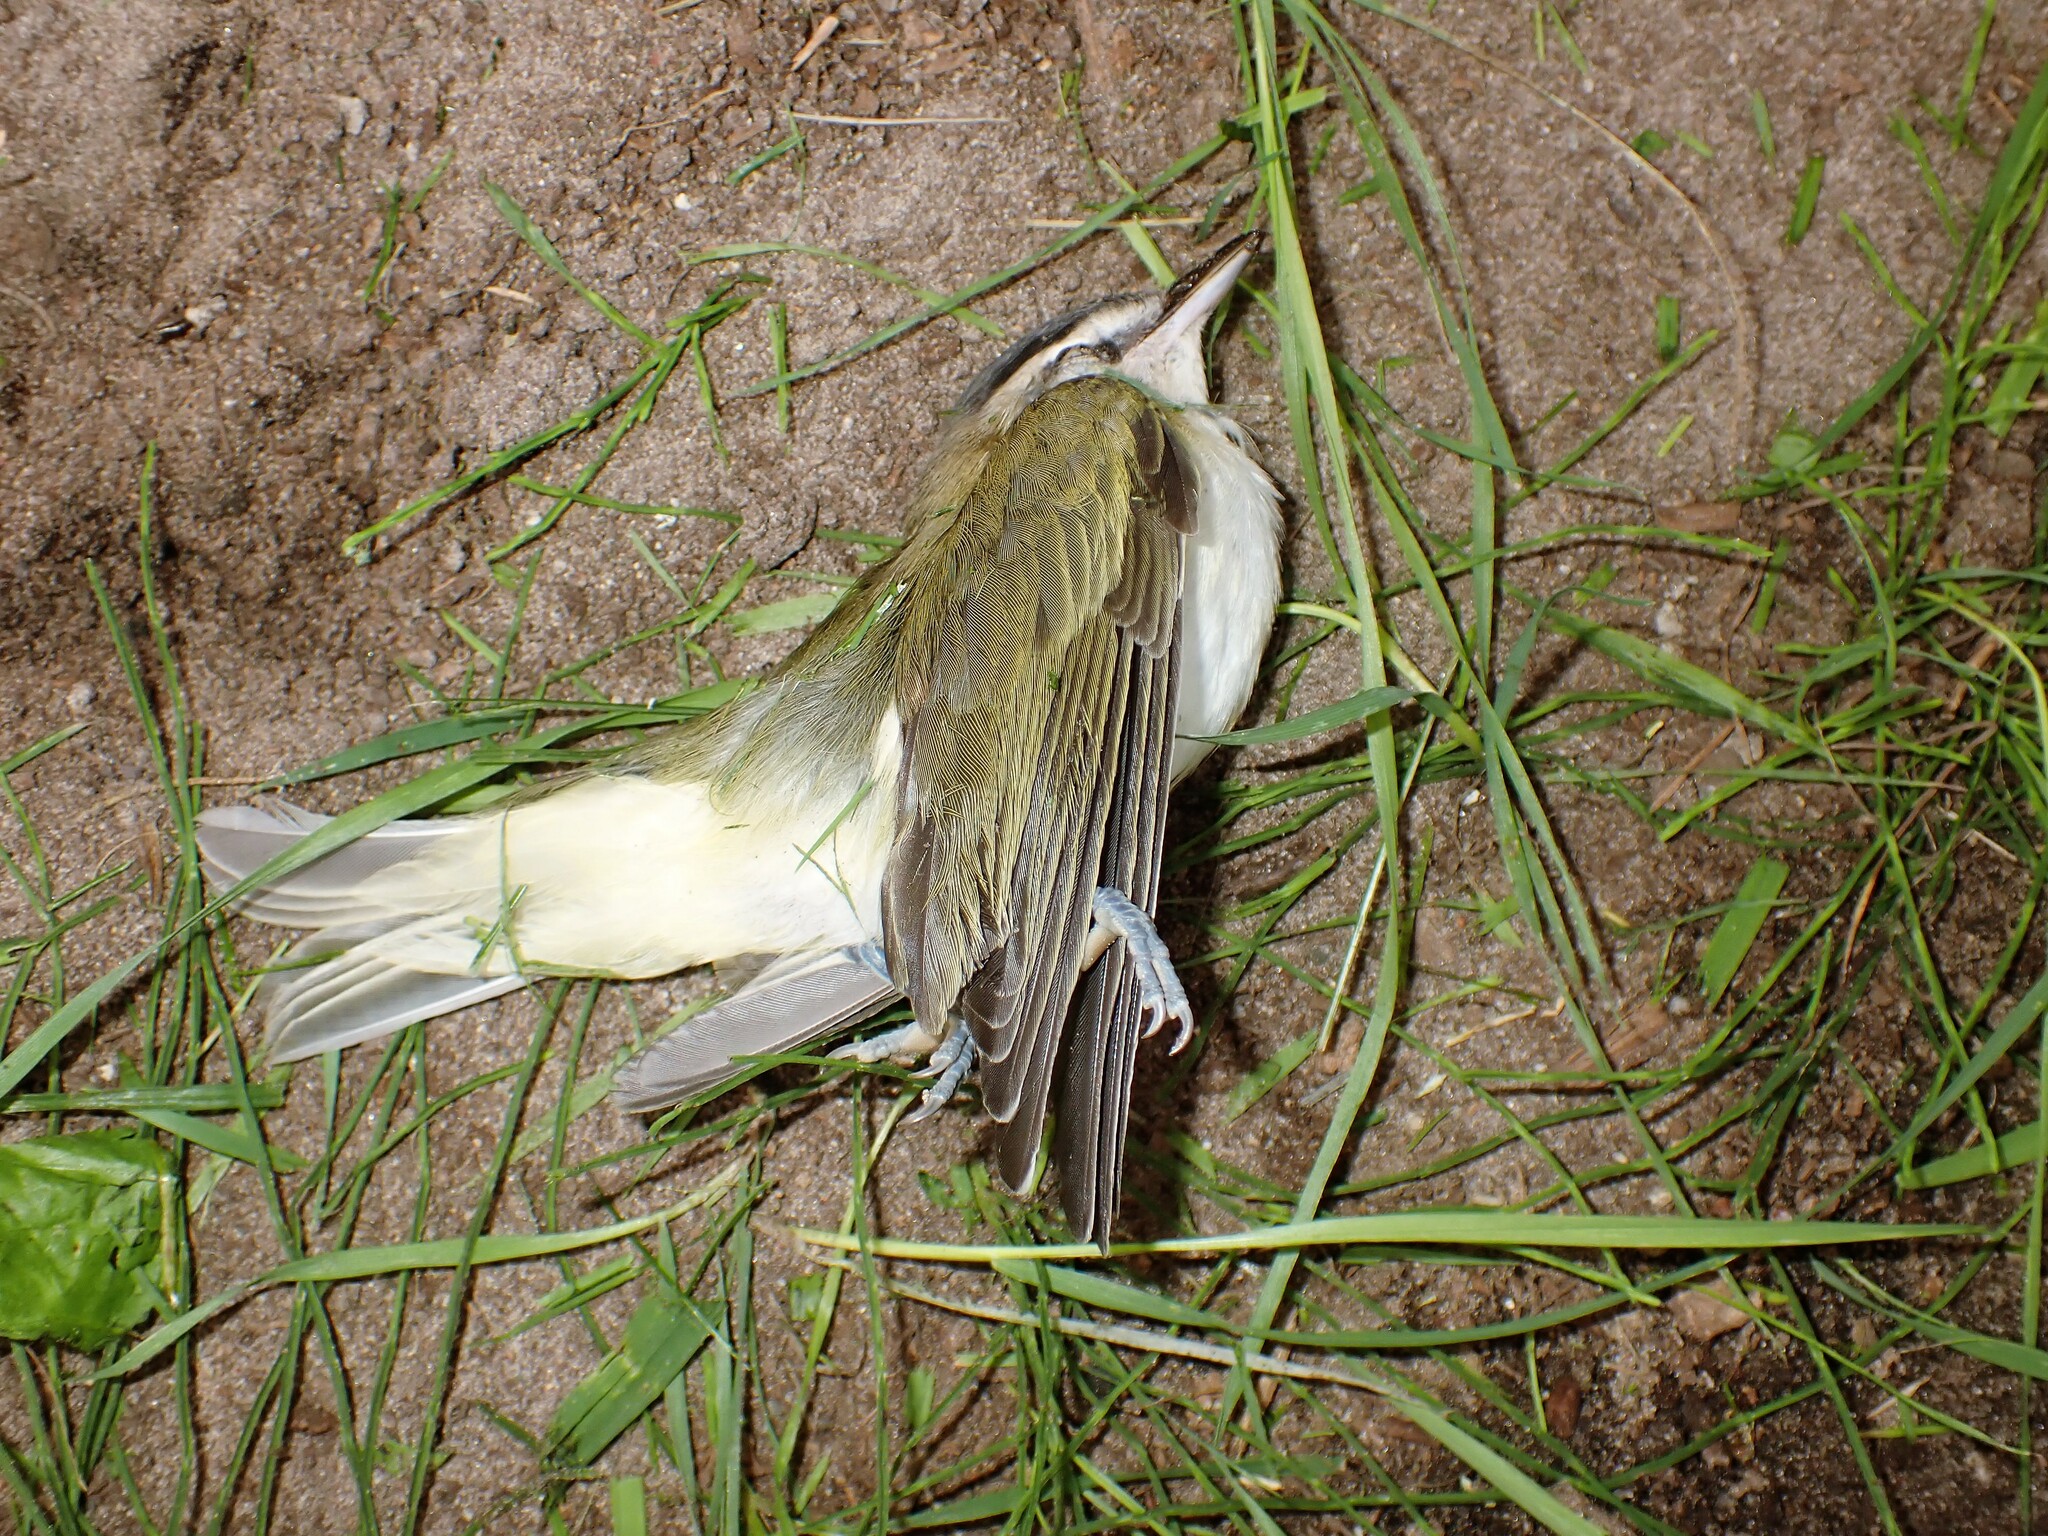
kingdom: Animalia
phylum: Chordata
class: Aves
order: Passeriformes
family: Vireonidae
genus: Vireo
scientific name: Vireo olivaceus
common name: Red-eyed vireo
